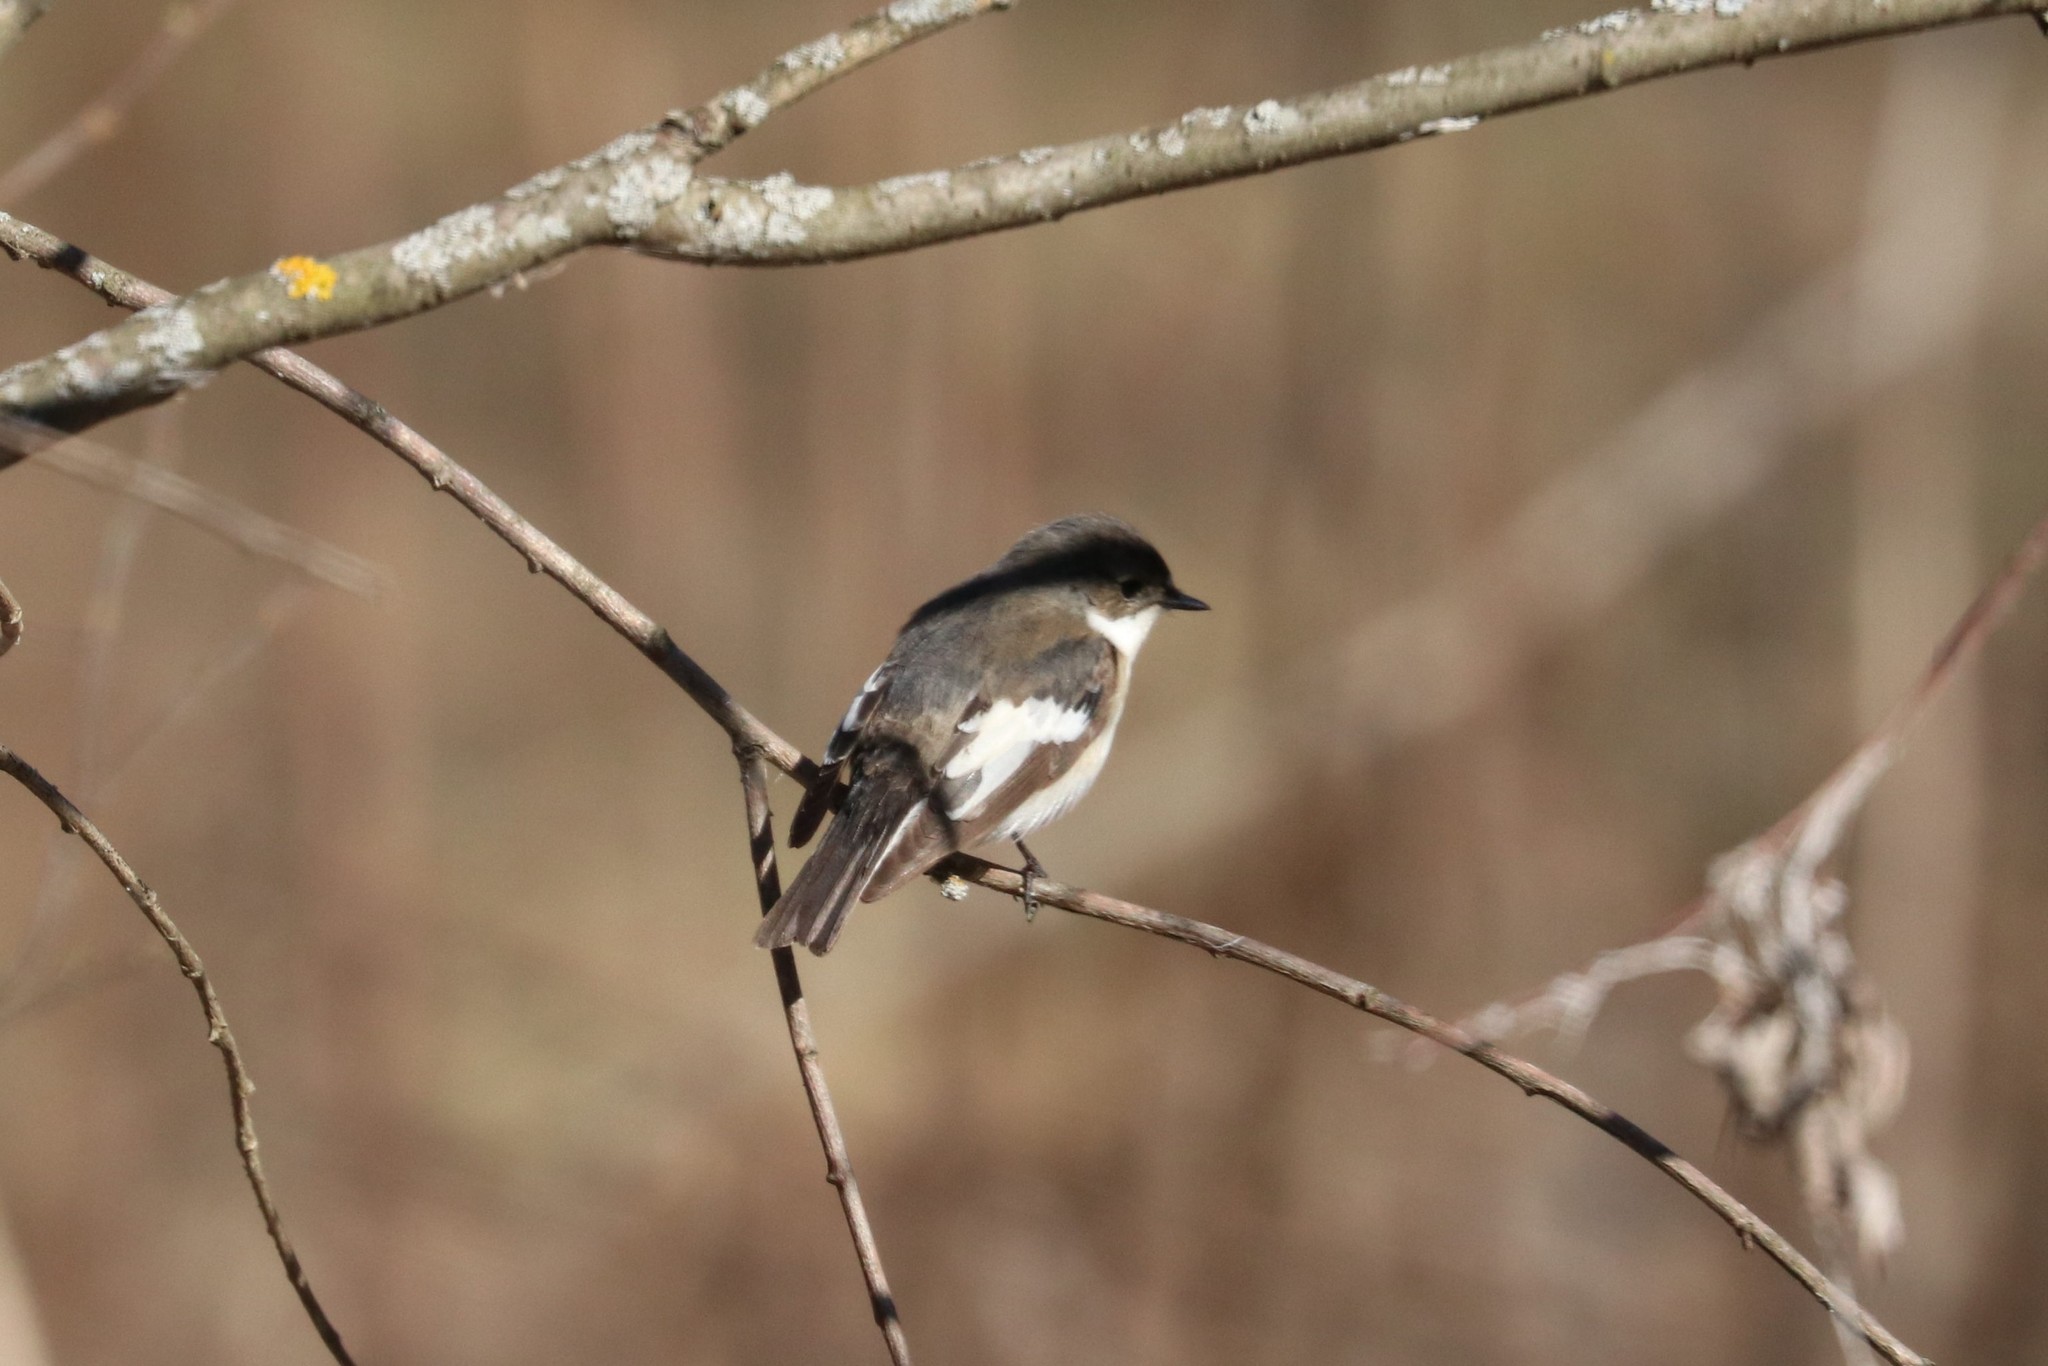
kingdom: Animalia
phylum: Chordata
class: Aves
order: Passeriformes
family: Muscicapidae
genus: Ficedula
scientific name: Ficedula hypoleuca
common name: European pied flycatcher
